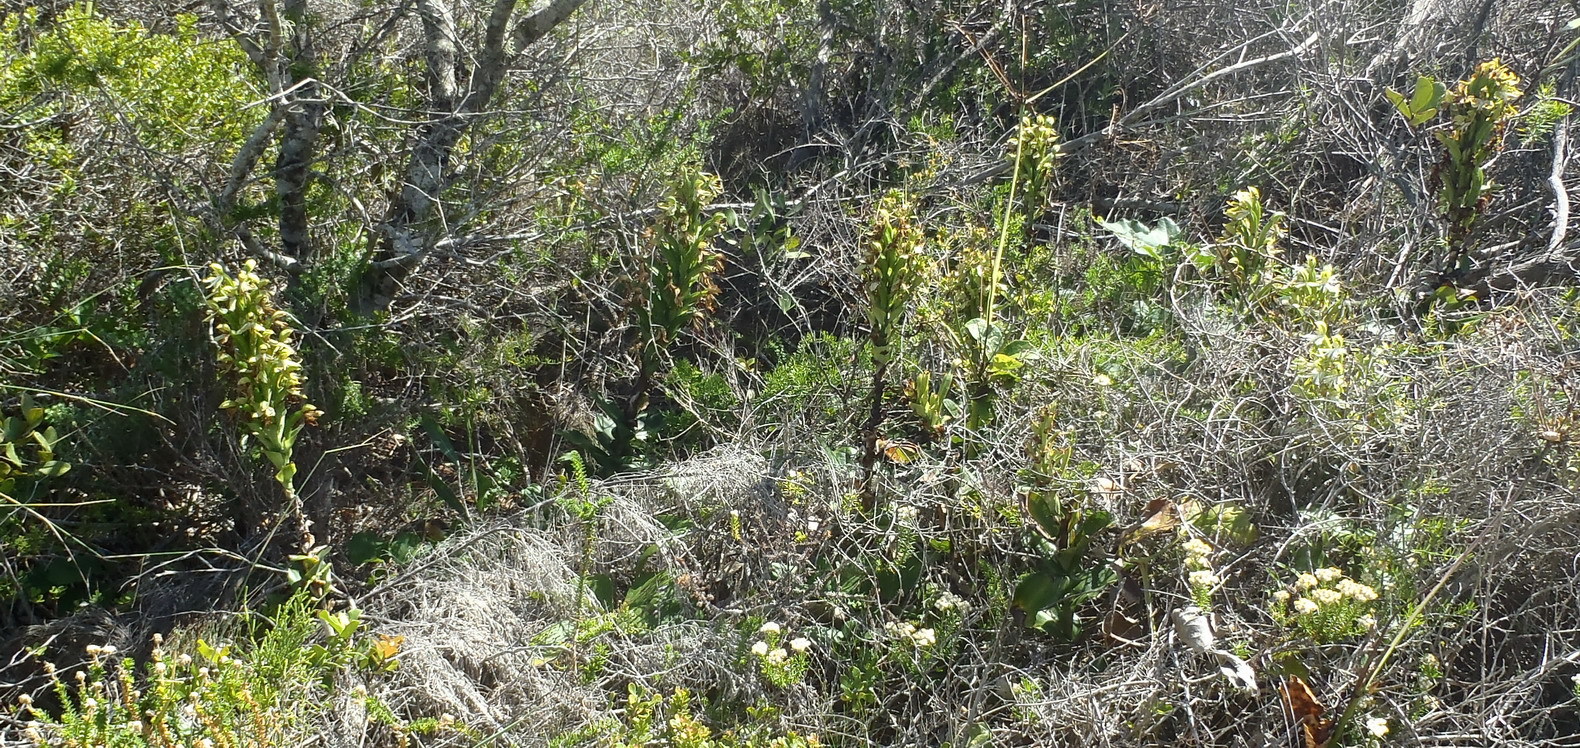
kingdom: Plantae
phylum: Tracheophyta
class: Liliopsida
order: Asparagales
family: Orchidaceae
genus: Bonatea
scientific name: Bonatea speciosa
